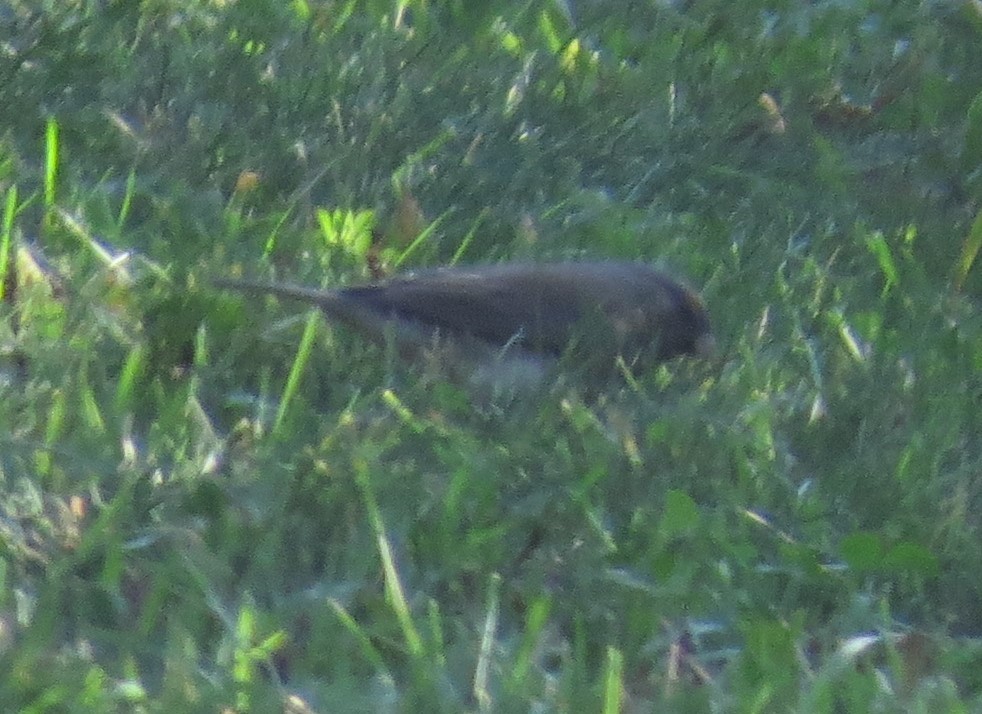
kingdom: Animalia
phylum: Chordata
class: Aves
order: Passeriformes
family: Passerellidae
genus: Junco
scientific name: Junco hyemalis
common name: Dark-eyed junco
